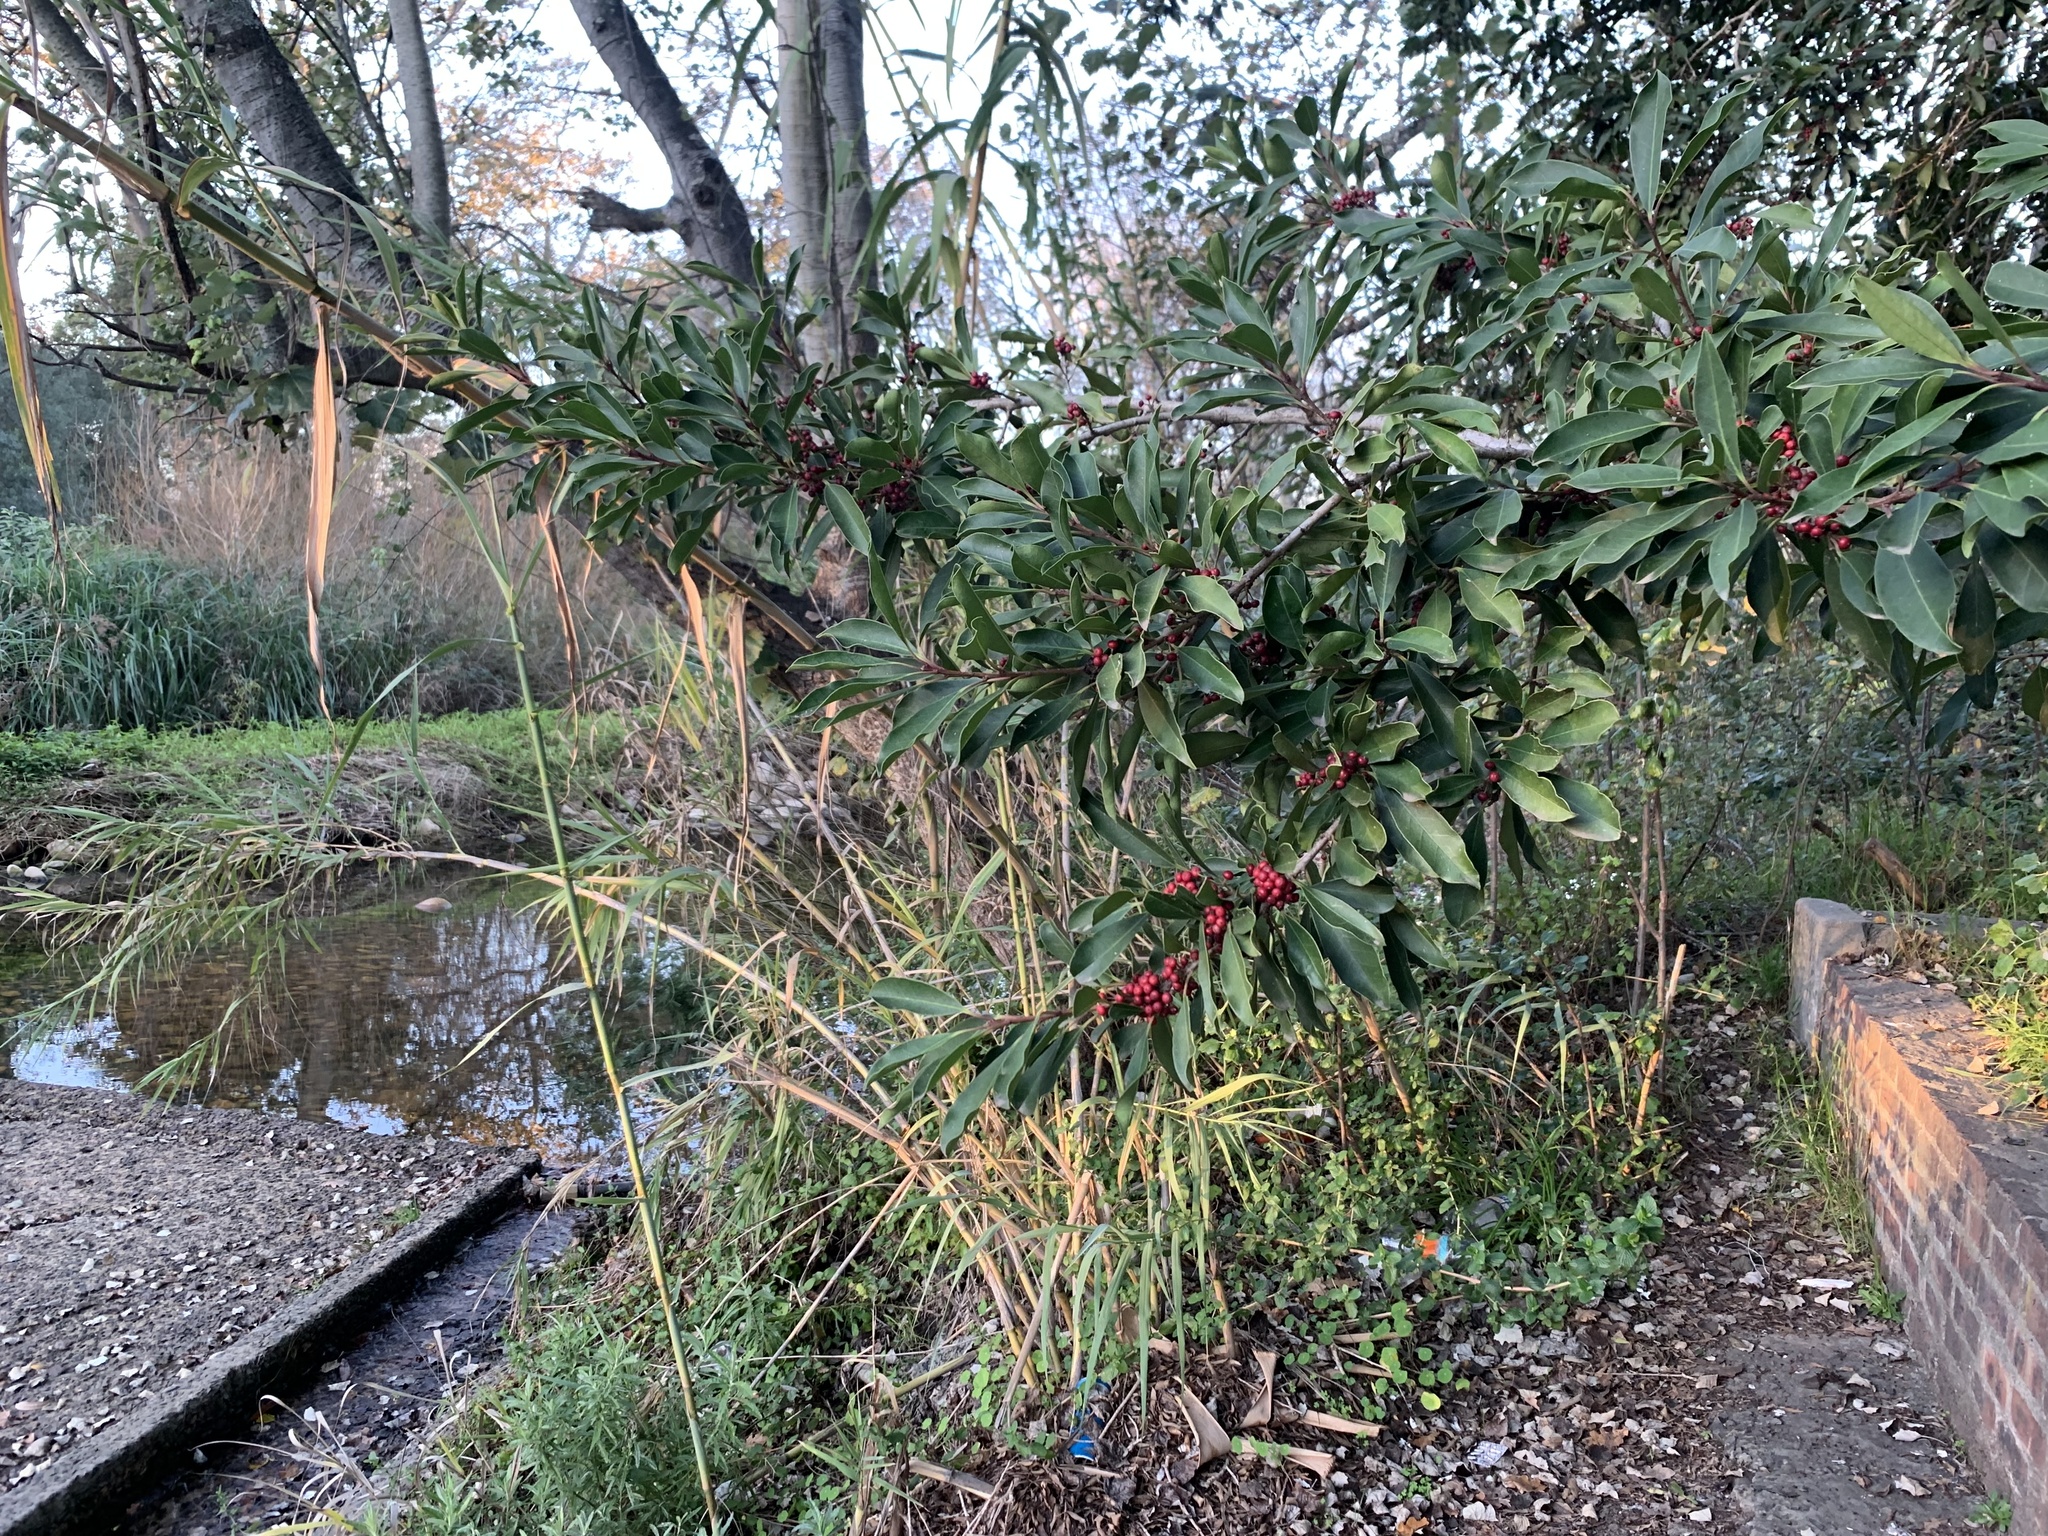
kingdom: Plantae
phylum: Tracheophyta
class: Magnoliopsida
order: Aquifoliales
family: Aquifoliaceae
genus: Ilex
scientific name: Ilex mitis
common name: African holly
